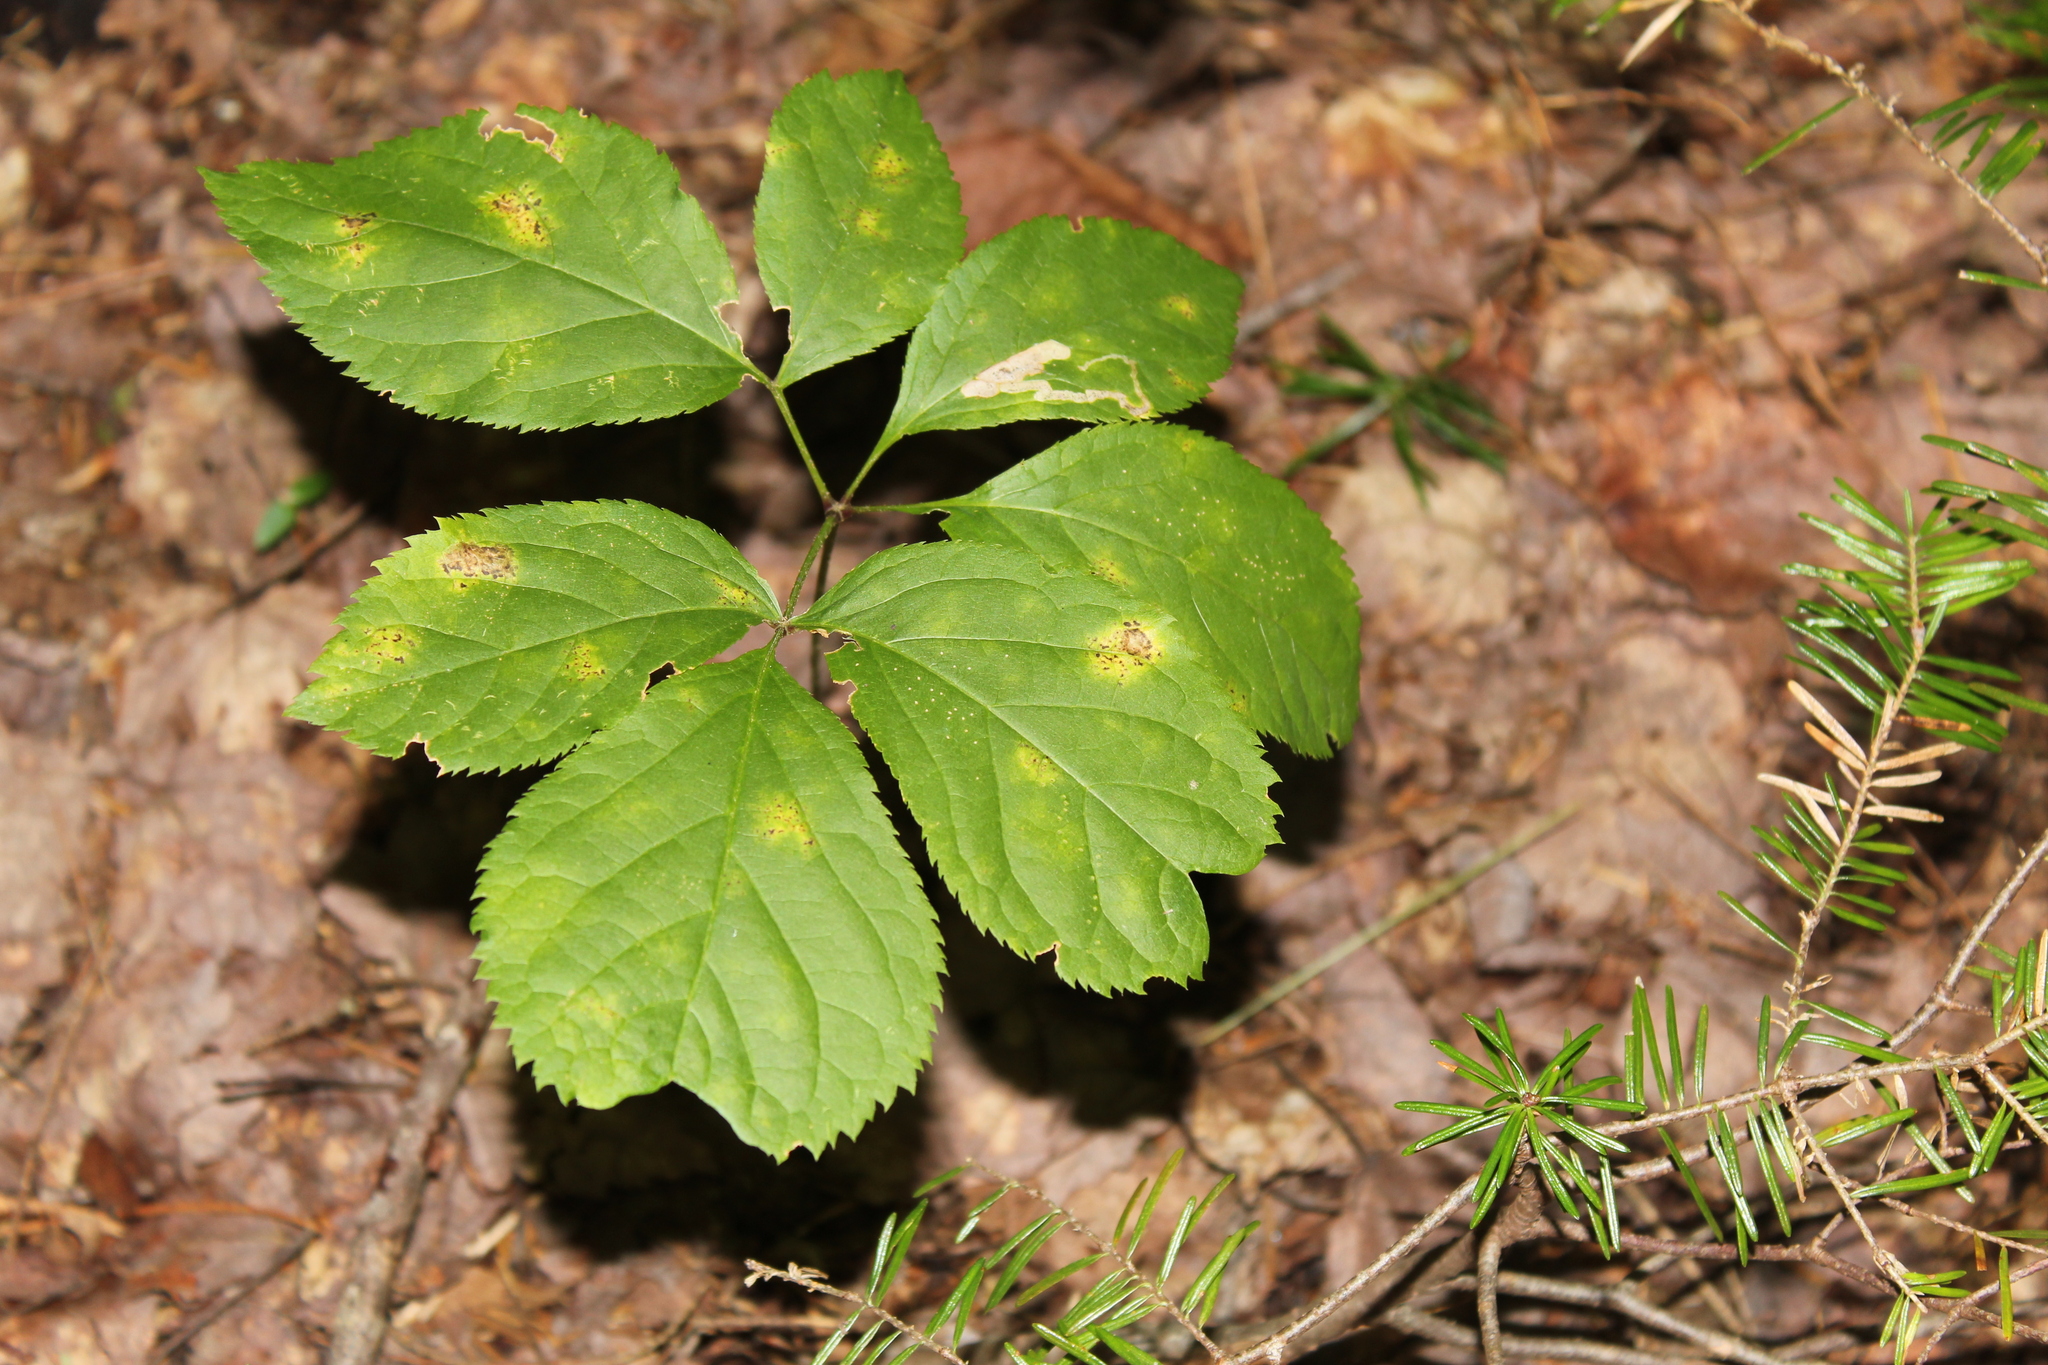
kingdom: Plantae
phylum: Tracheophyta
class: Magnoliopsida
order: Apiales
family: Araliaceae
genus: Aralia
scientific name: Aralia nudicaulis
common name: Wild sarsaparilla
